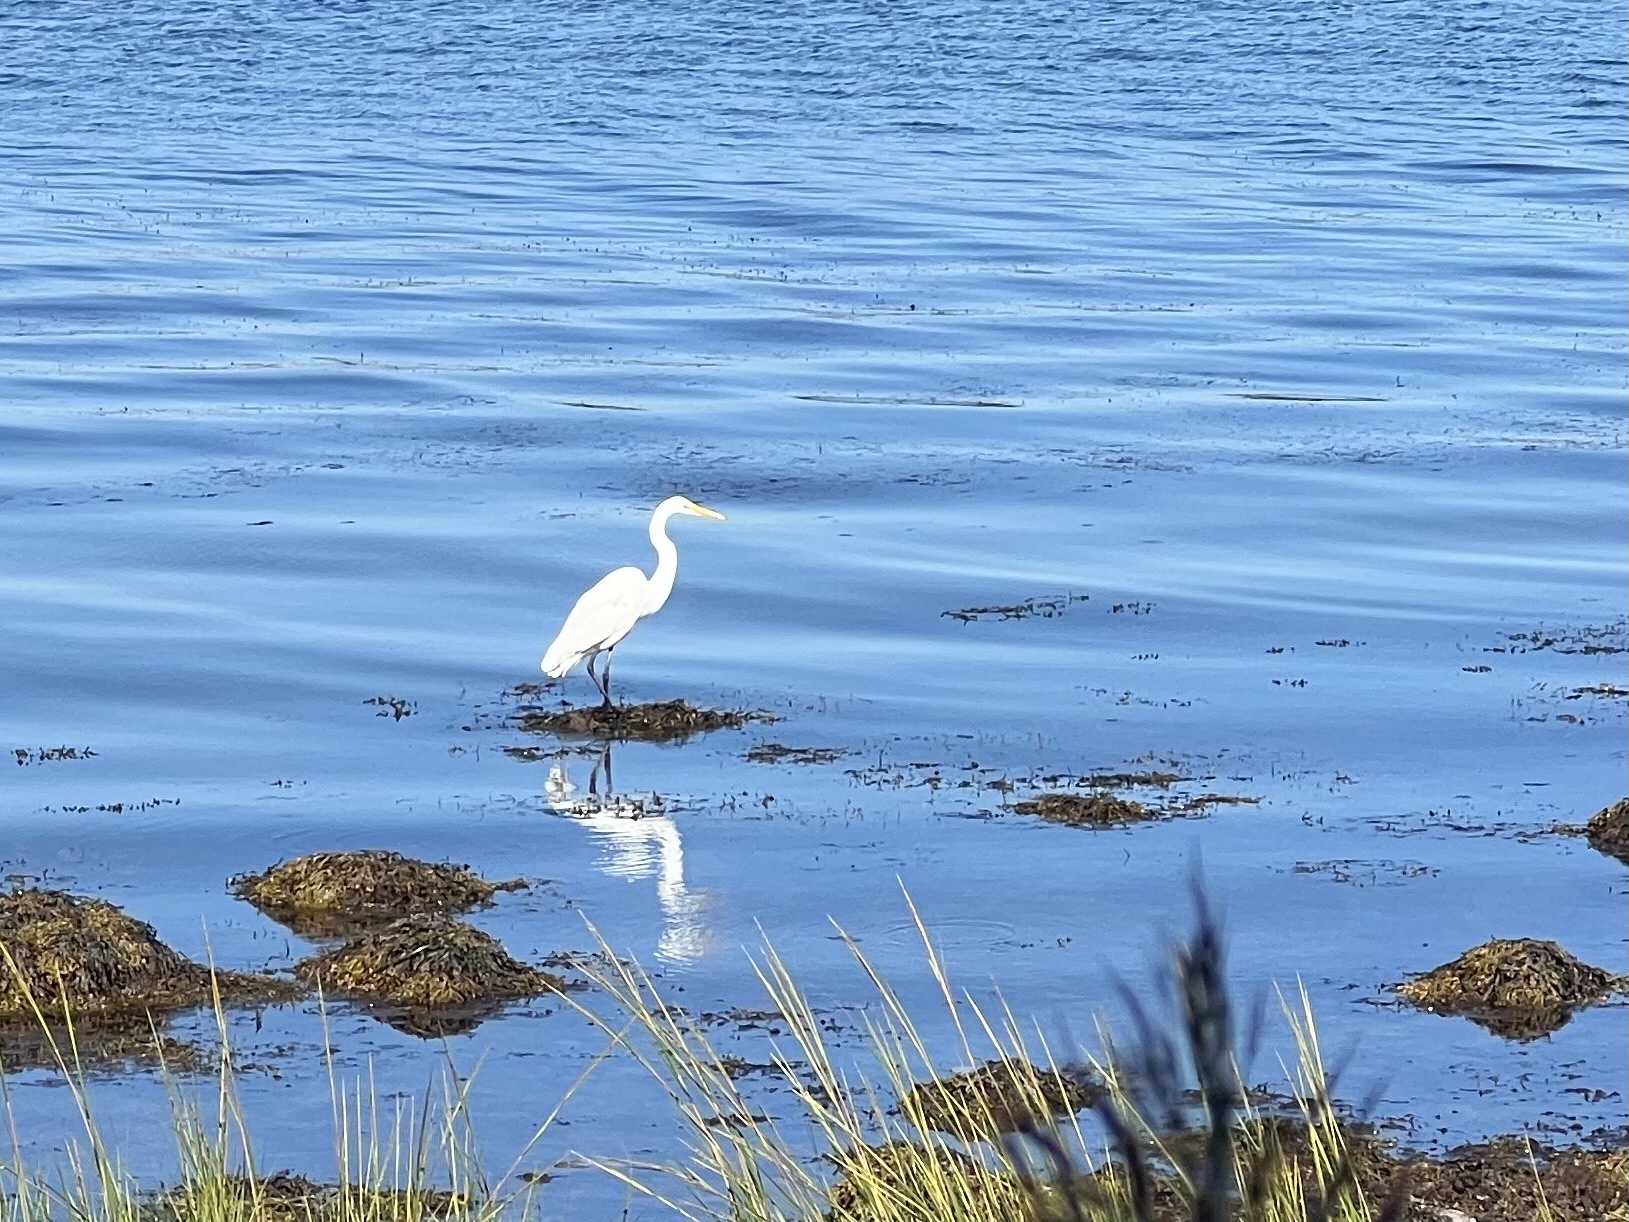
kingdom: Animalia
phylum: Chordata
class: Aves
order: Pelecaniformes
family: Ardeidae
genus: Ardea
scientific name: Ardea alba
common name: Great egret
